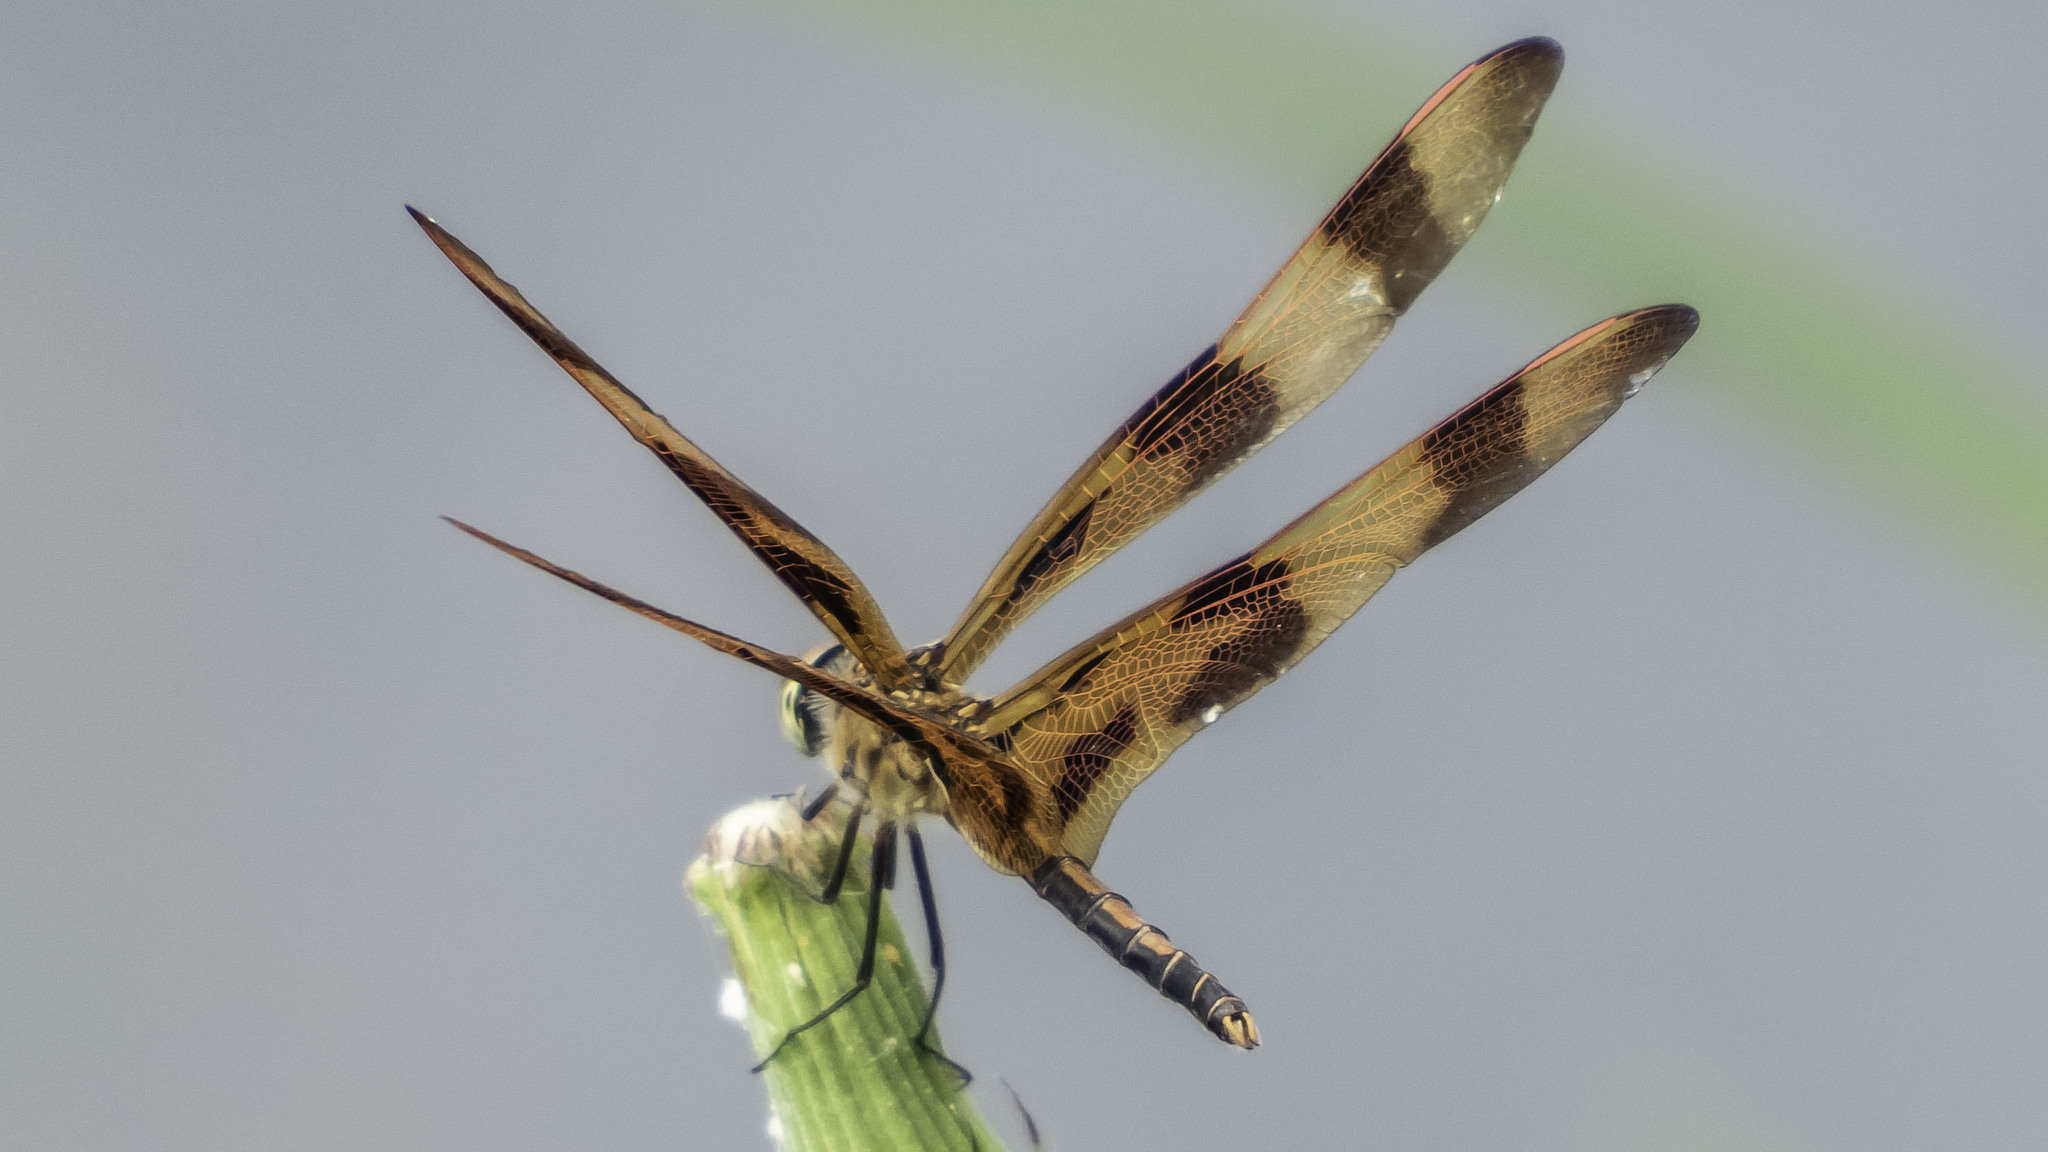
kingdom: Animalia
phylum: Arthropoda
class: Insecta
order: Odonata
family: Libellulidae
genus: Celithemis
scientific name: Celithemis eponina
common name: Halloween pennant
